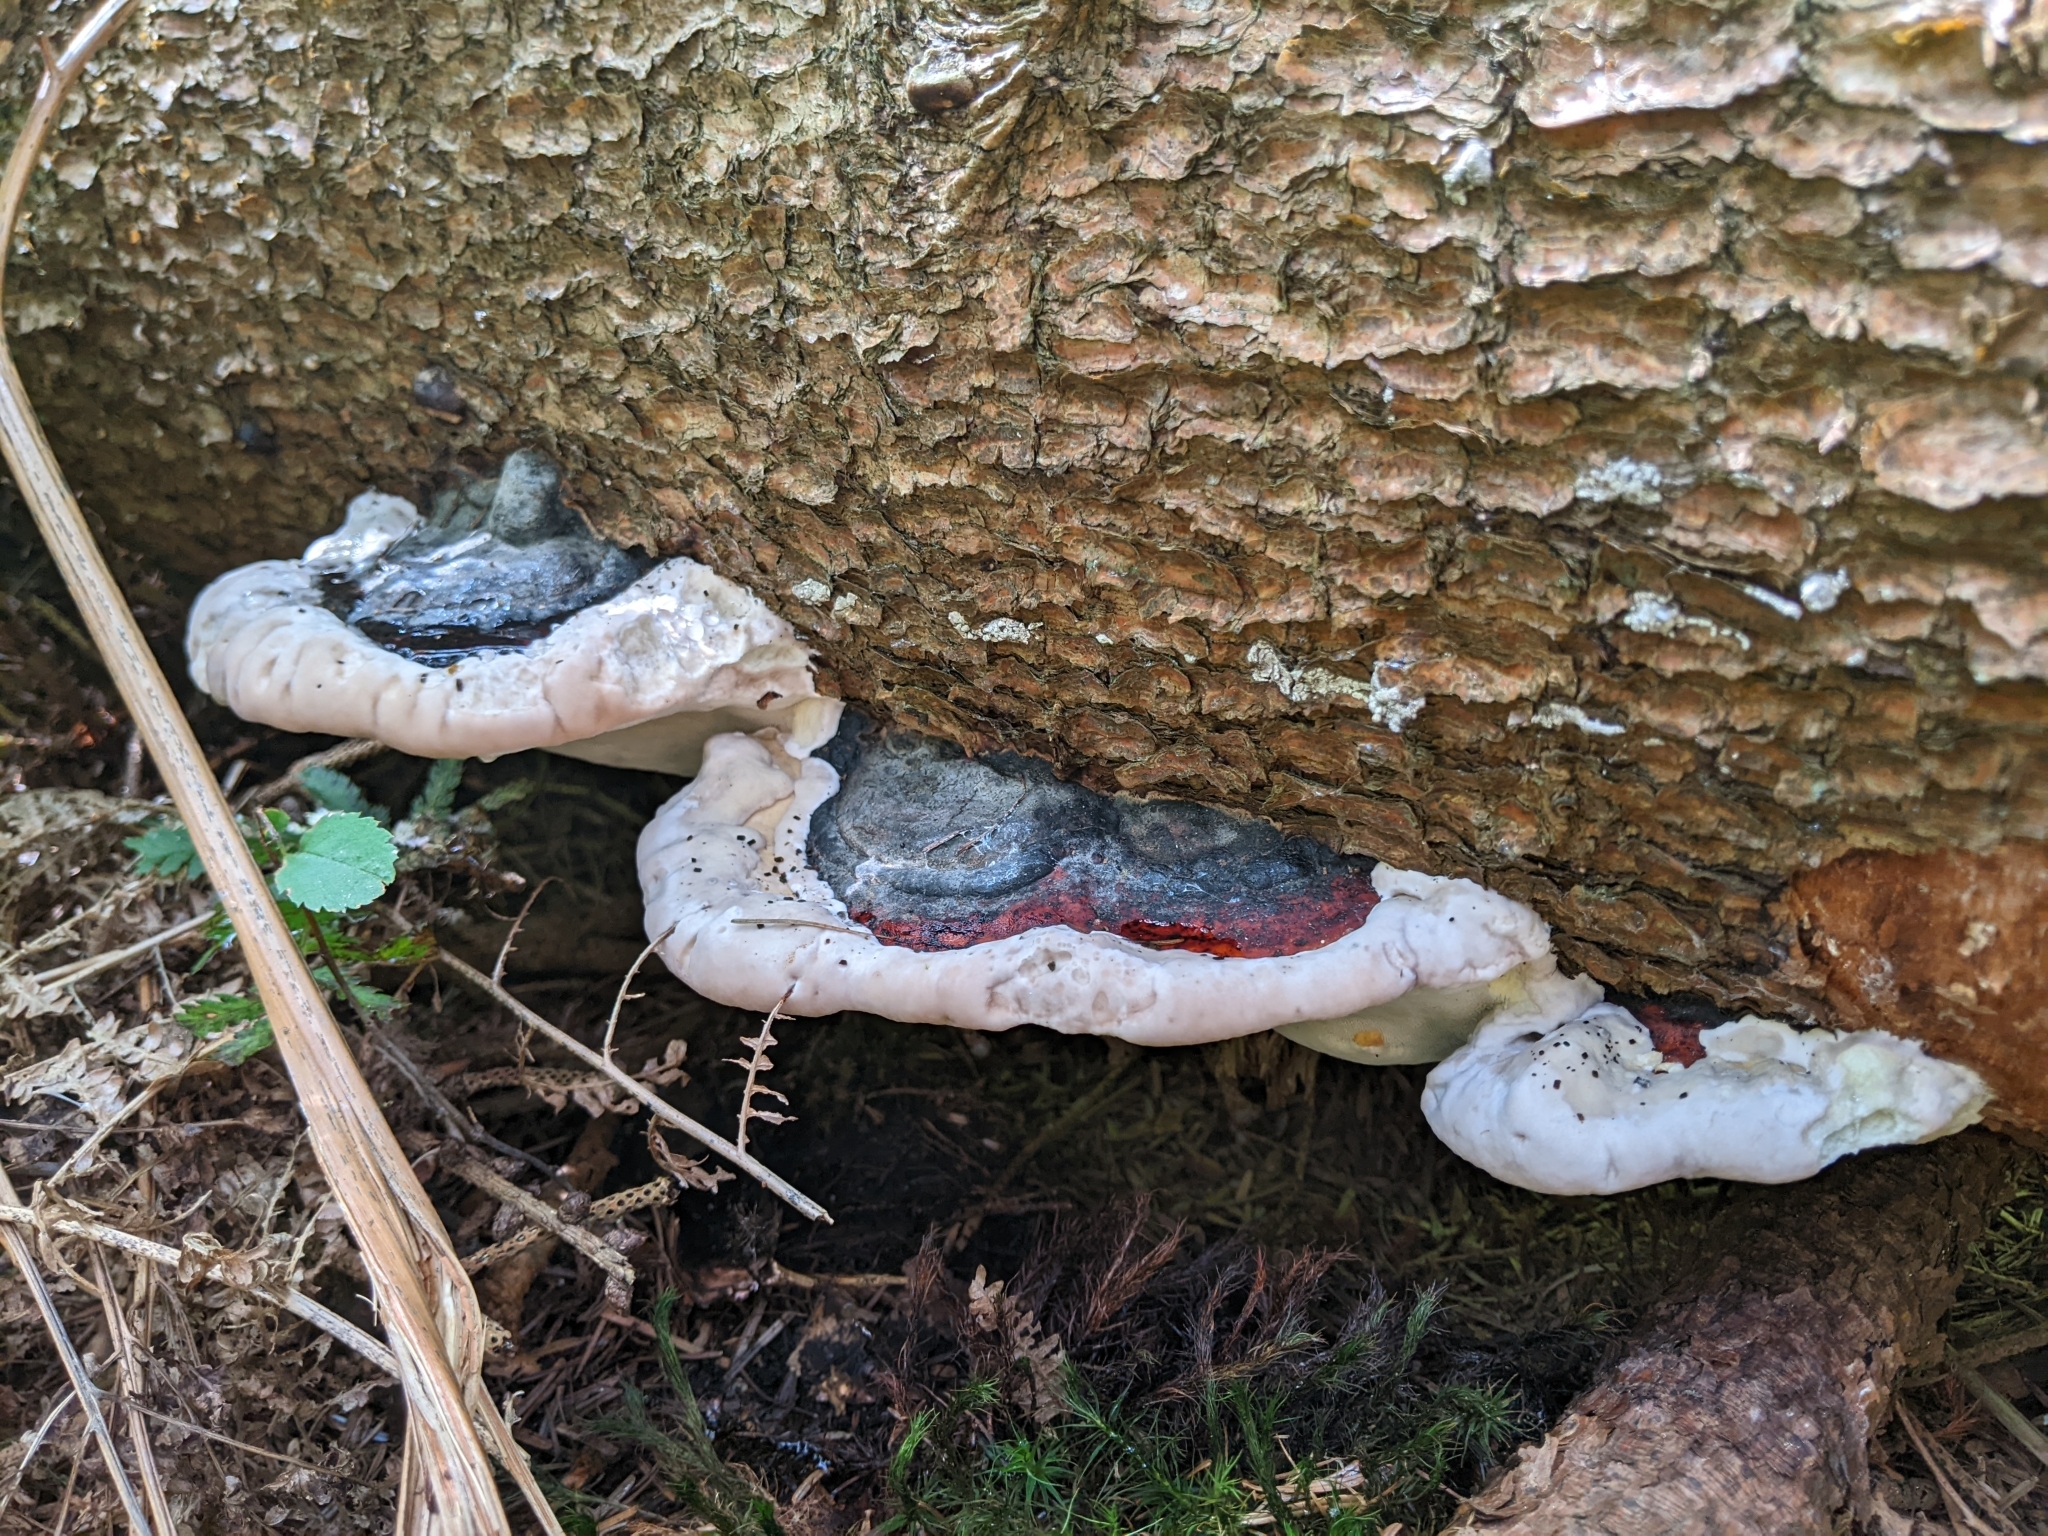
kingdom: Fungi
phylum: Basidiomycota
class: Agaricomycetes
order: Polyporales
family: Fomitopsidaceae
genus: Fomitopsis
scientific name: Fomitopsis pinicola
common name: Red-belted bracket
